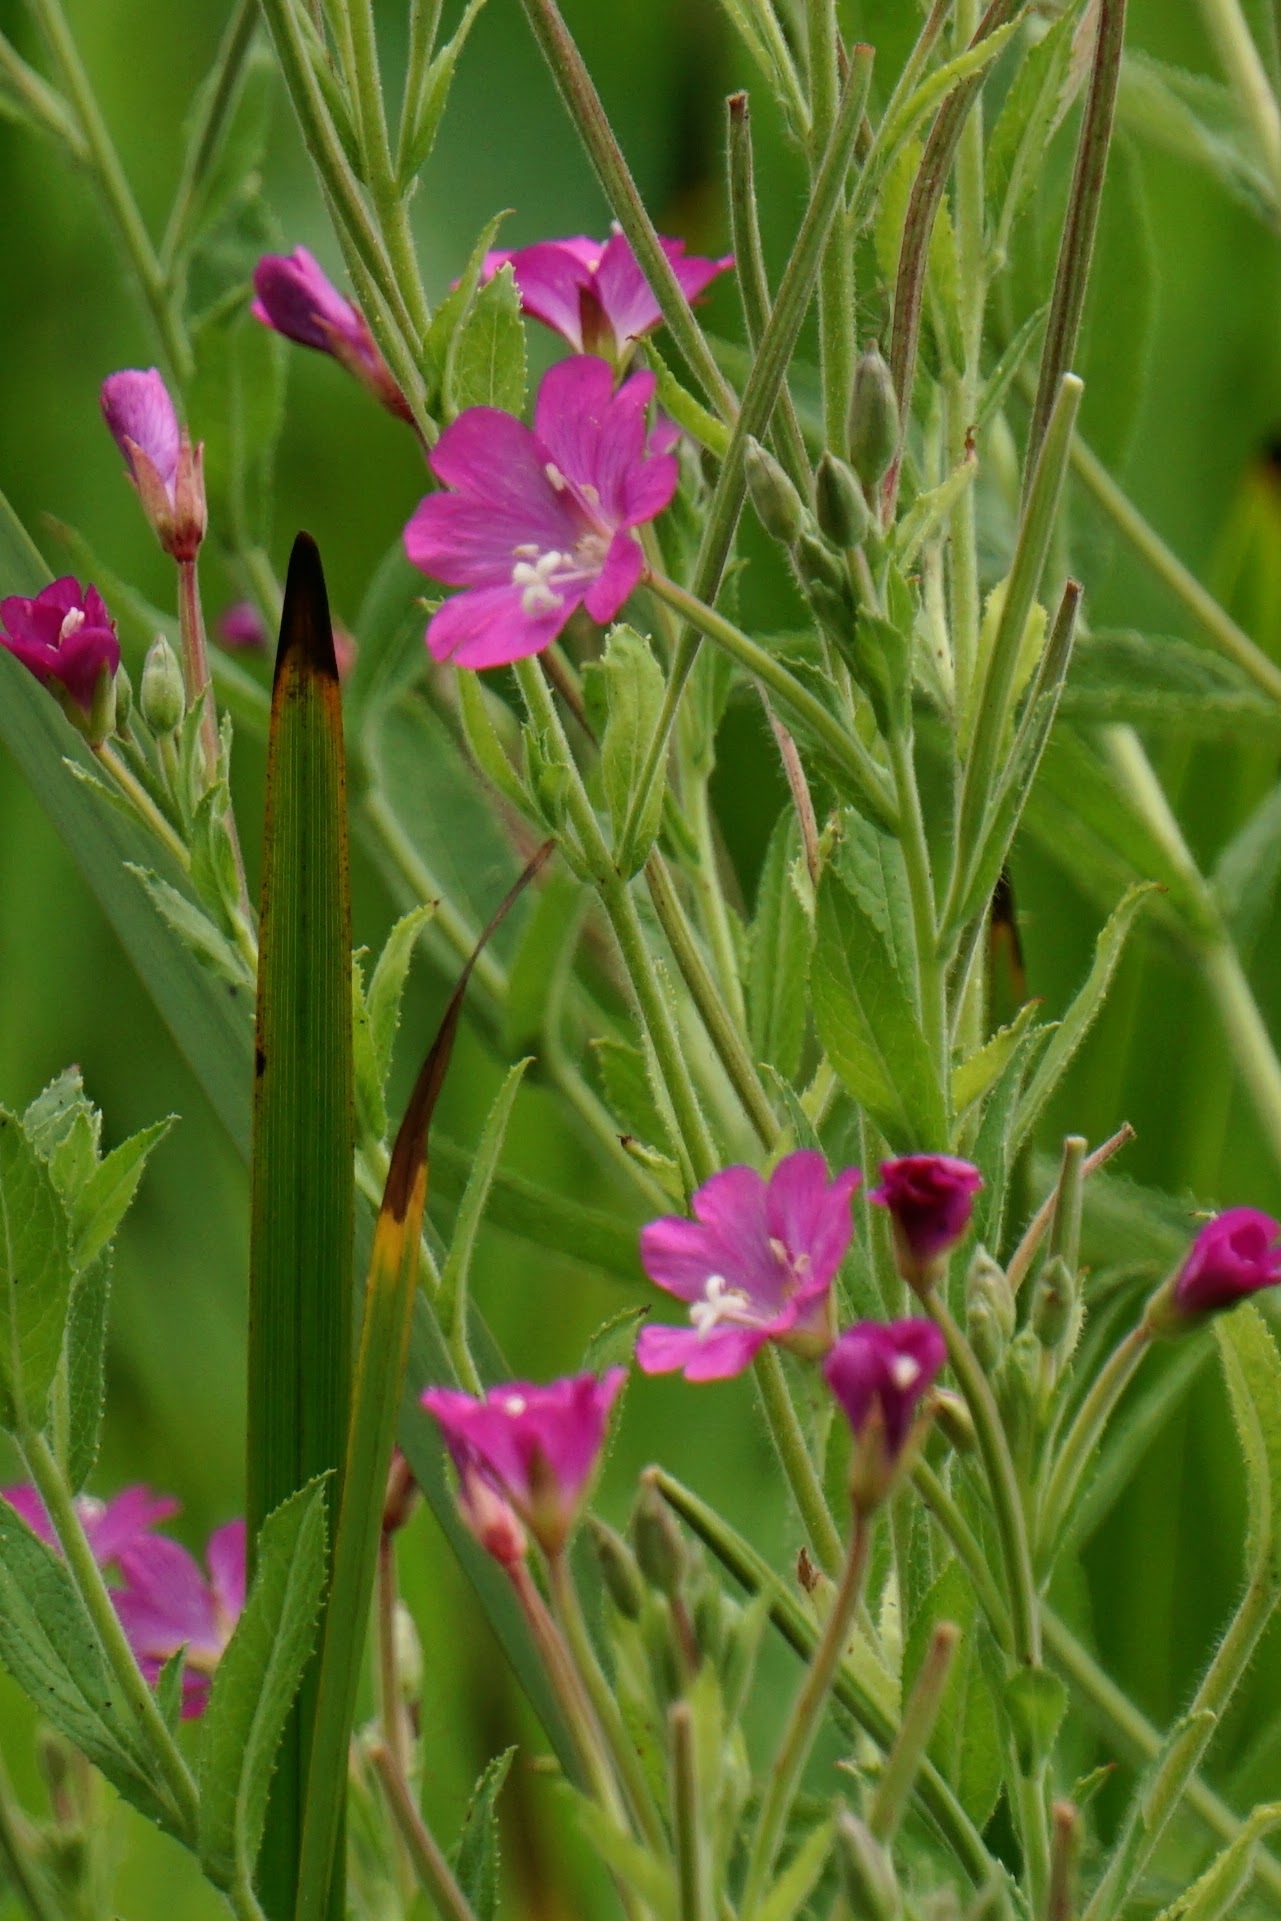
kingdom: Plantae
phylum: Tracheophyta
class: Magnoliopsida
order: Myrtales
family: Onagraceae
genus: Epilobium
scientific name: Epilobium hirsutum
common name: Great willowherb
